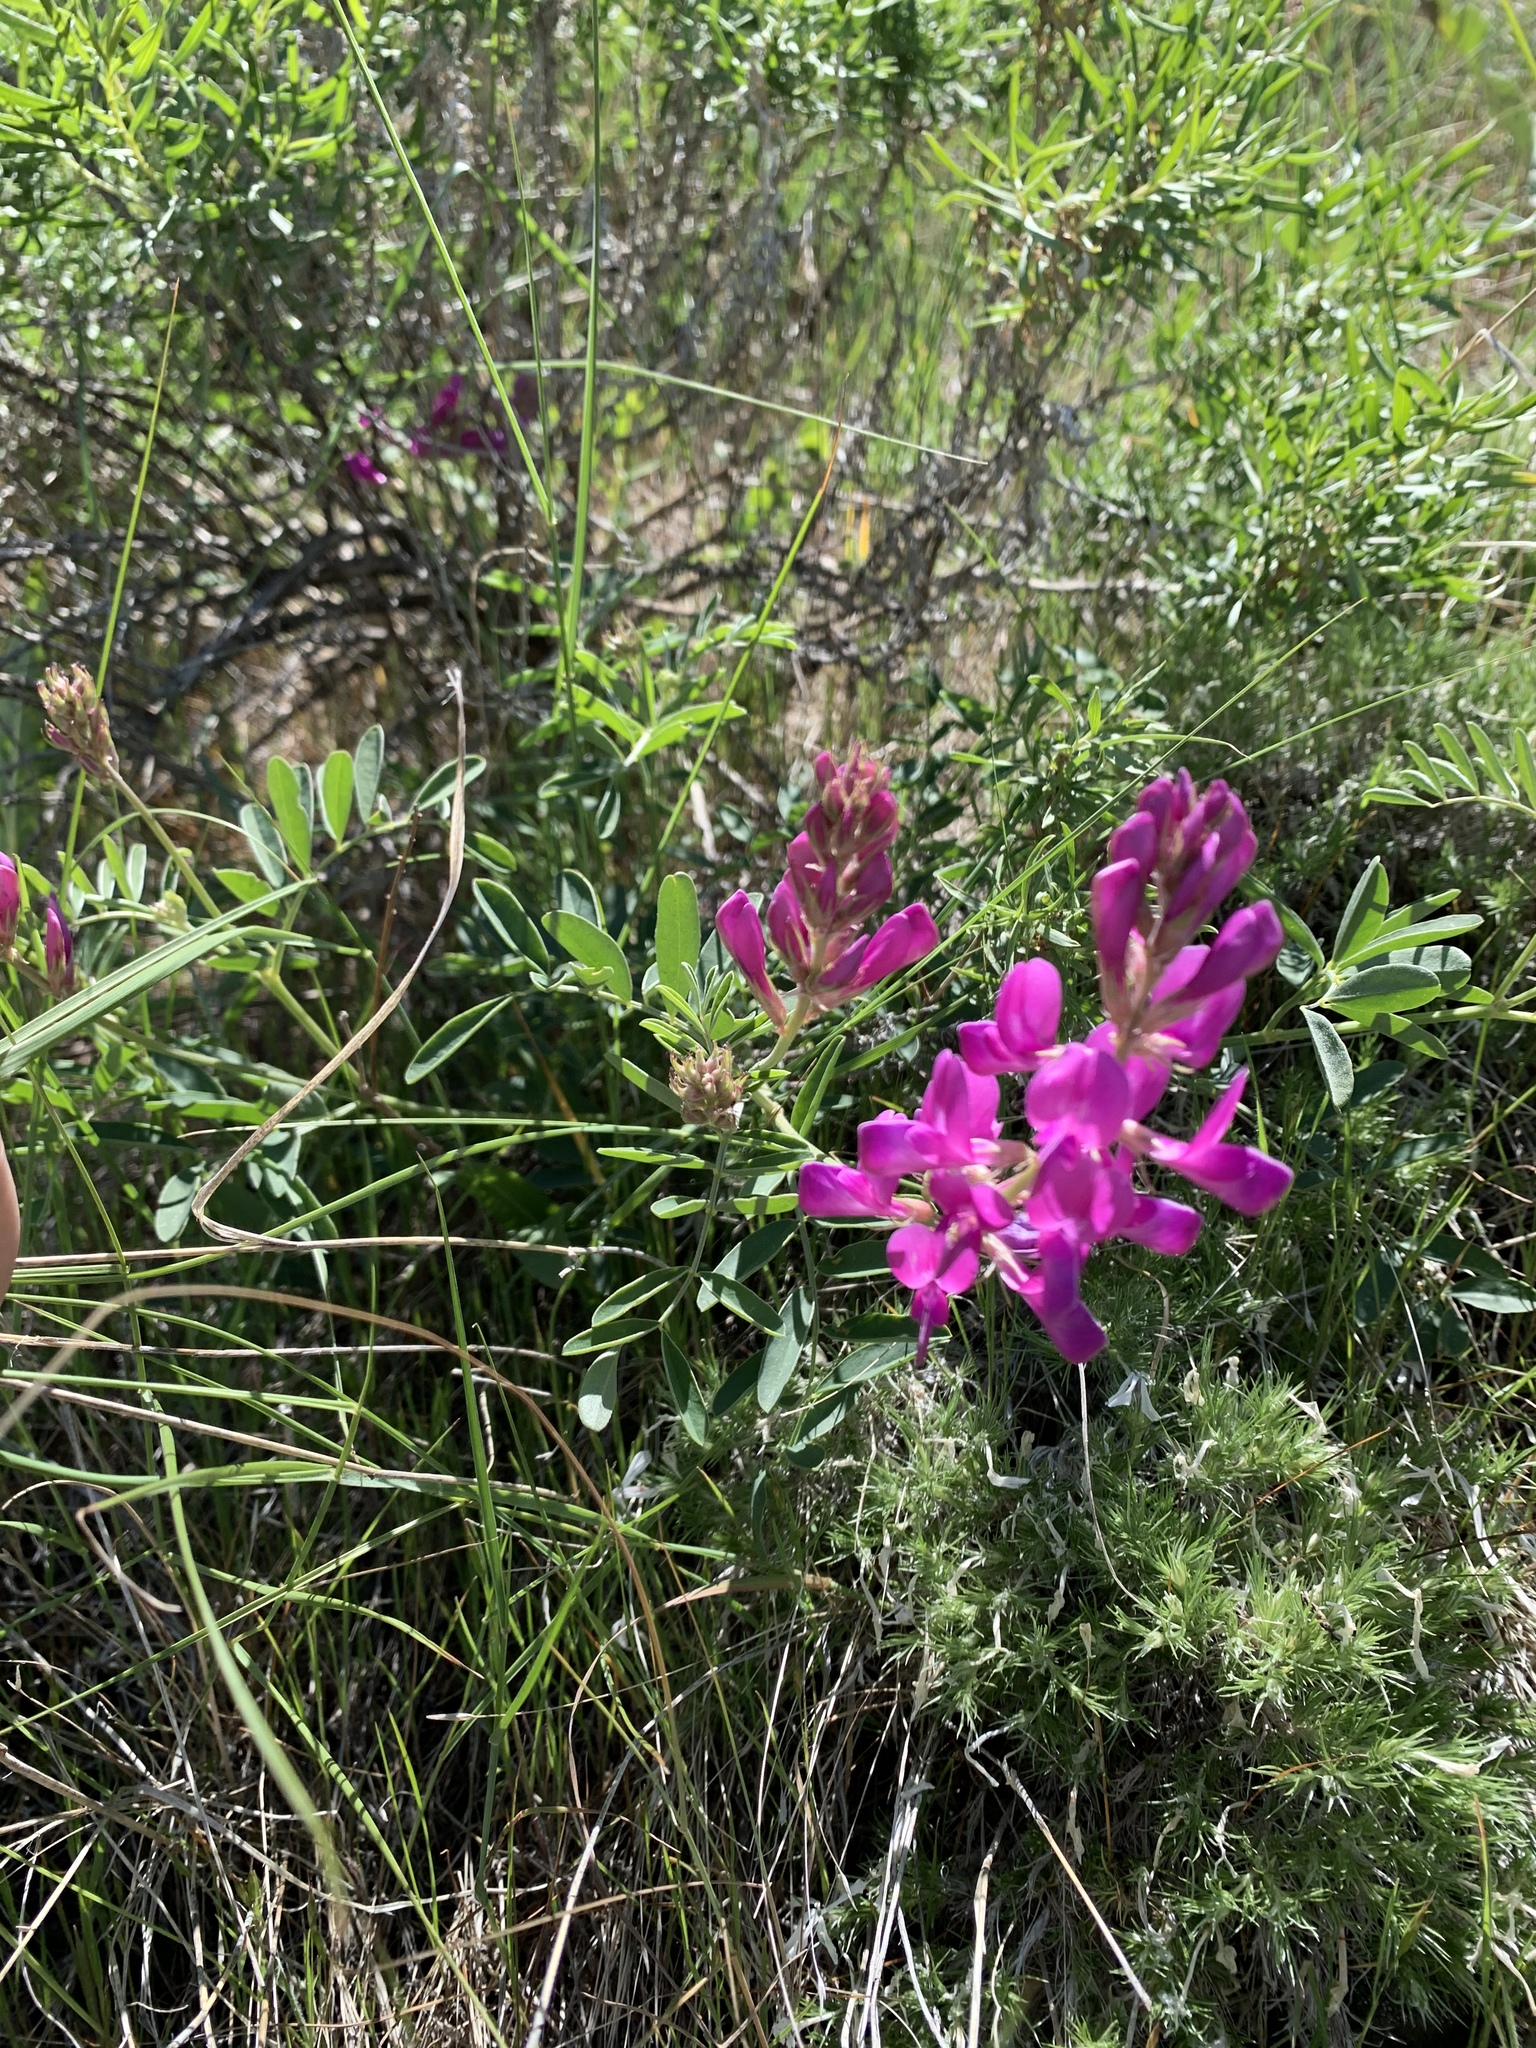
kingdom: Plantae
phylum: Tracheophyta
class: Magnoliopsida
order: Fabales
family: Fabaceae
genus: Hedysarum
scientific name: Hedysarum boreale
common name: Northern sweet-vetch
